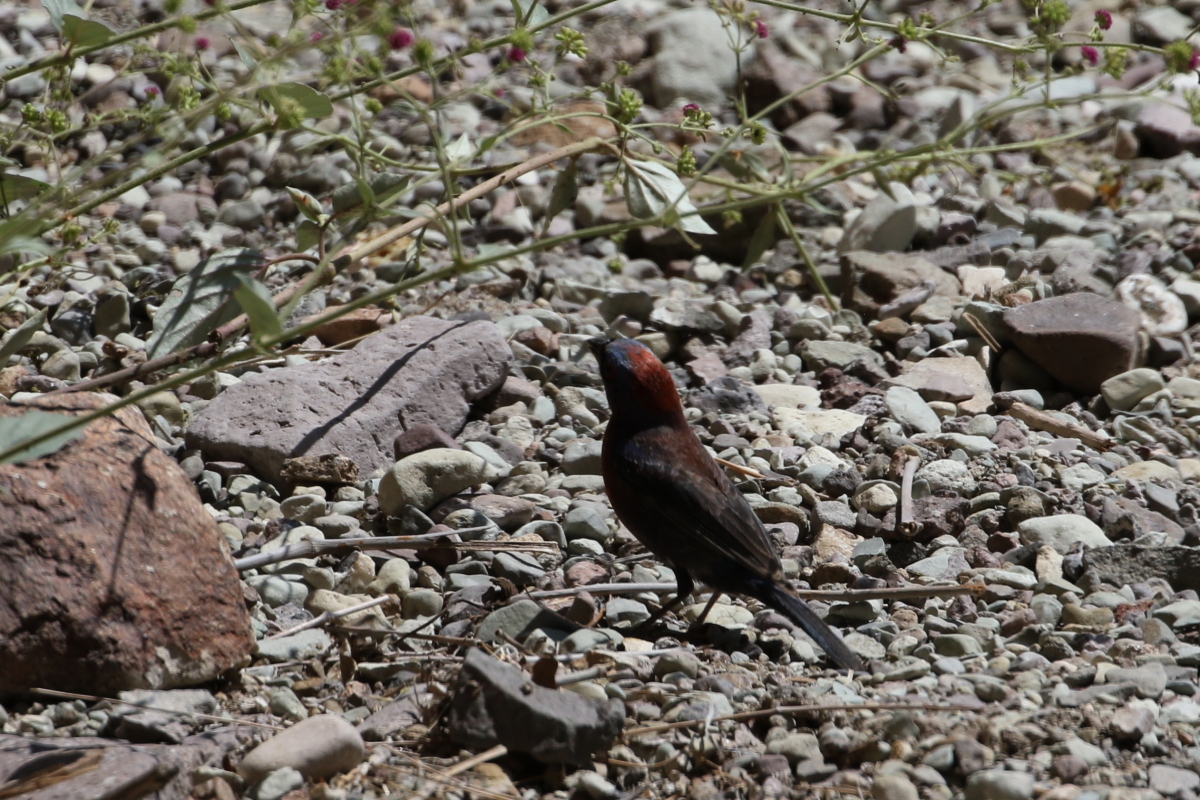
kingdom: Animalia
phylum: Chordata
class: Aves
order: Passeriformes
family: Cardinalidae
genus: Passerina
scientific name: Passerina versicolor
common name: Varied bunting
